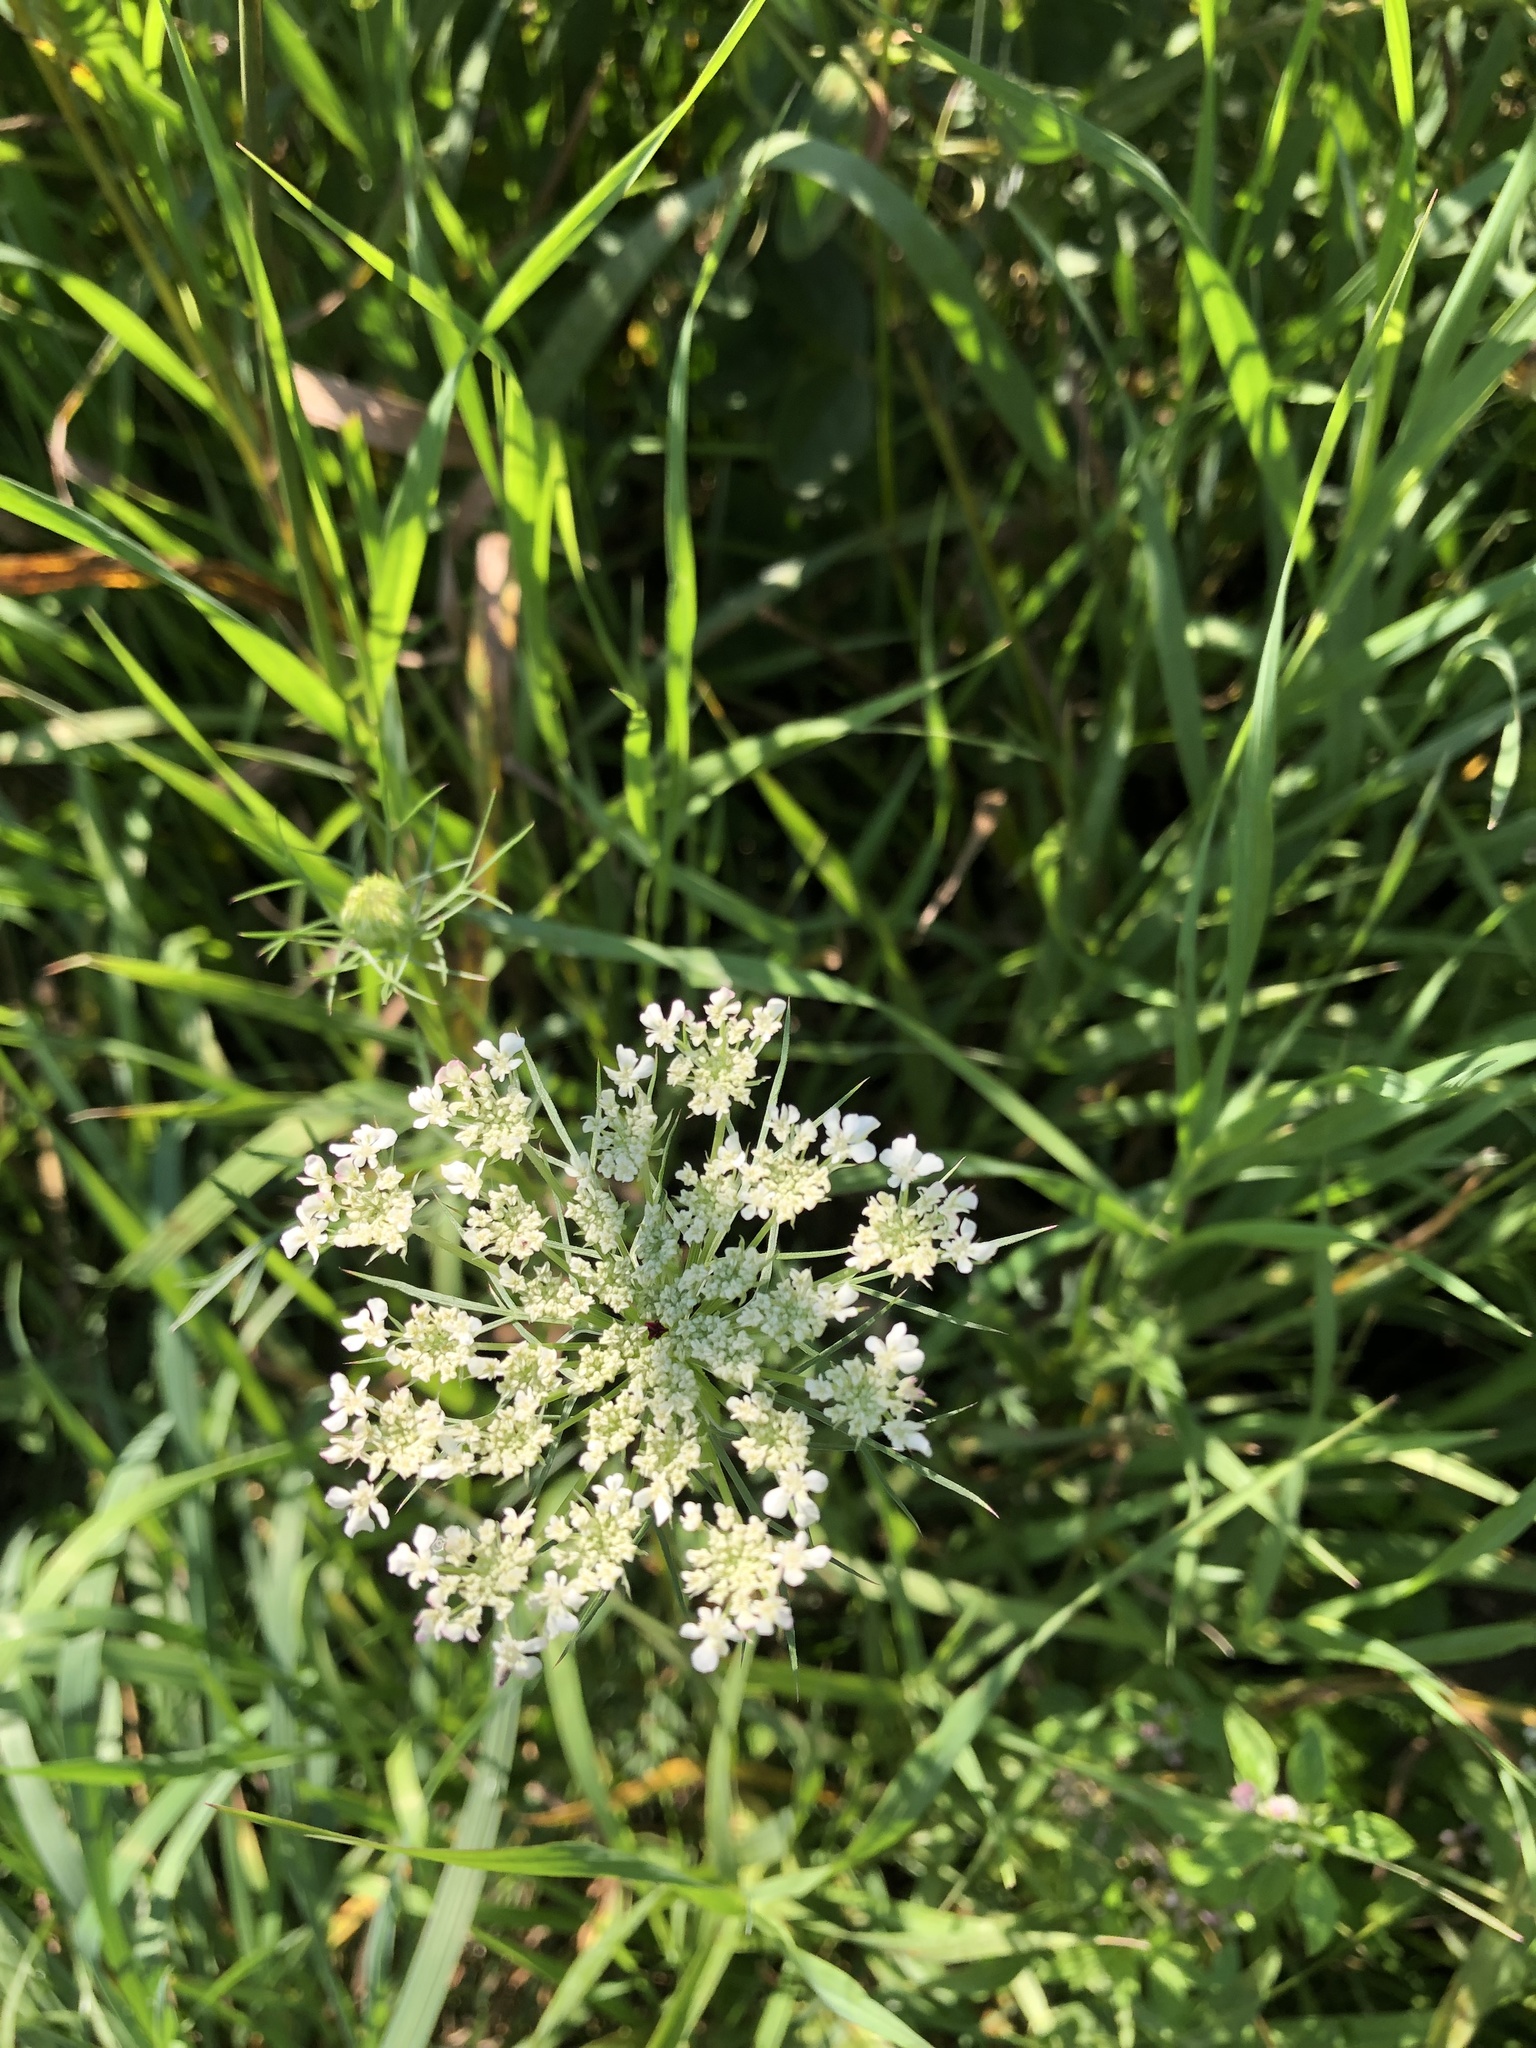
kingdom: Plantae
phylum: Tracheophyta
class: Magnoliopsida
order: Apiales
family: Apiaceae
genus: Daucus
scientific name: Daucus carota
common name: Wild carrot
